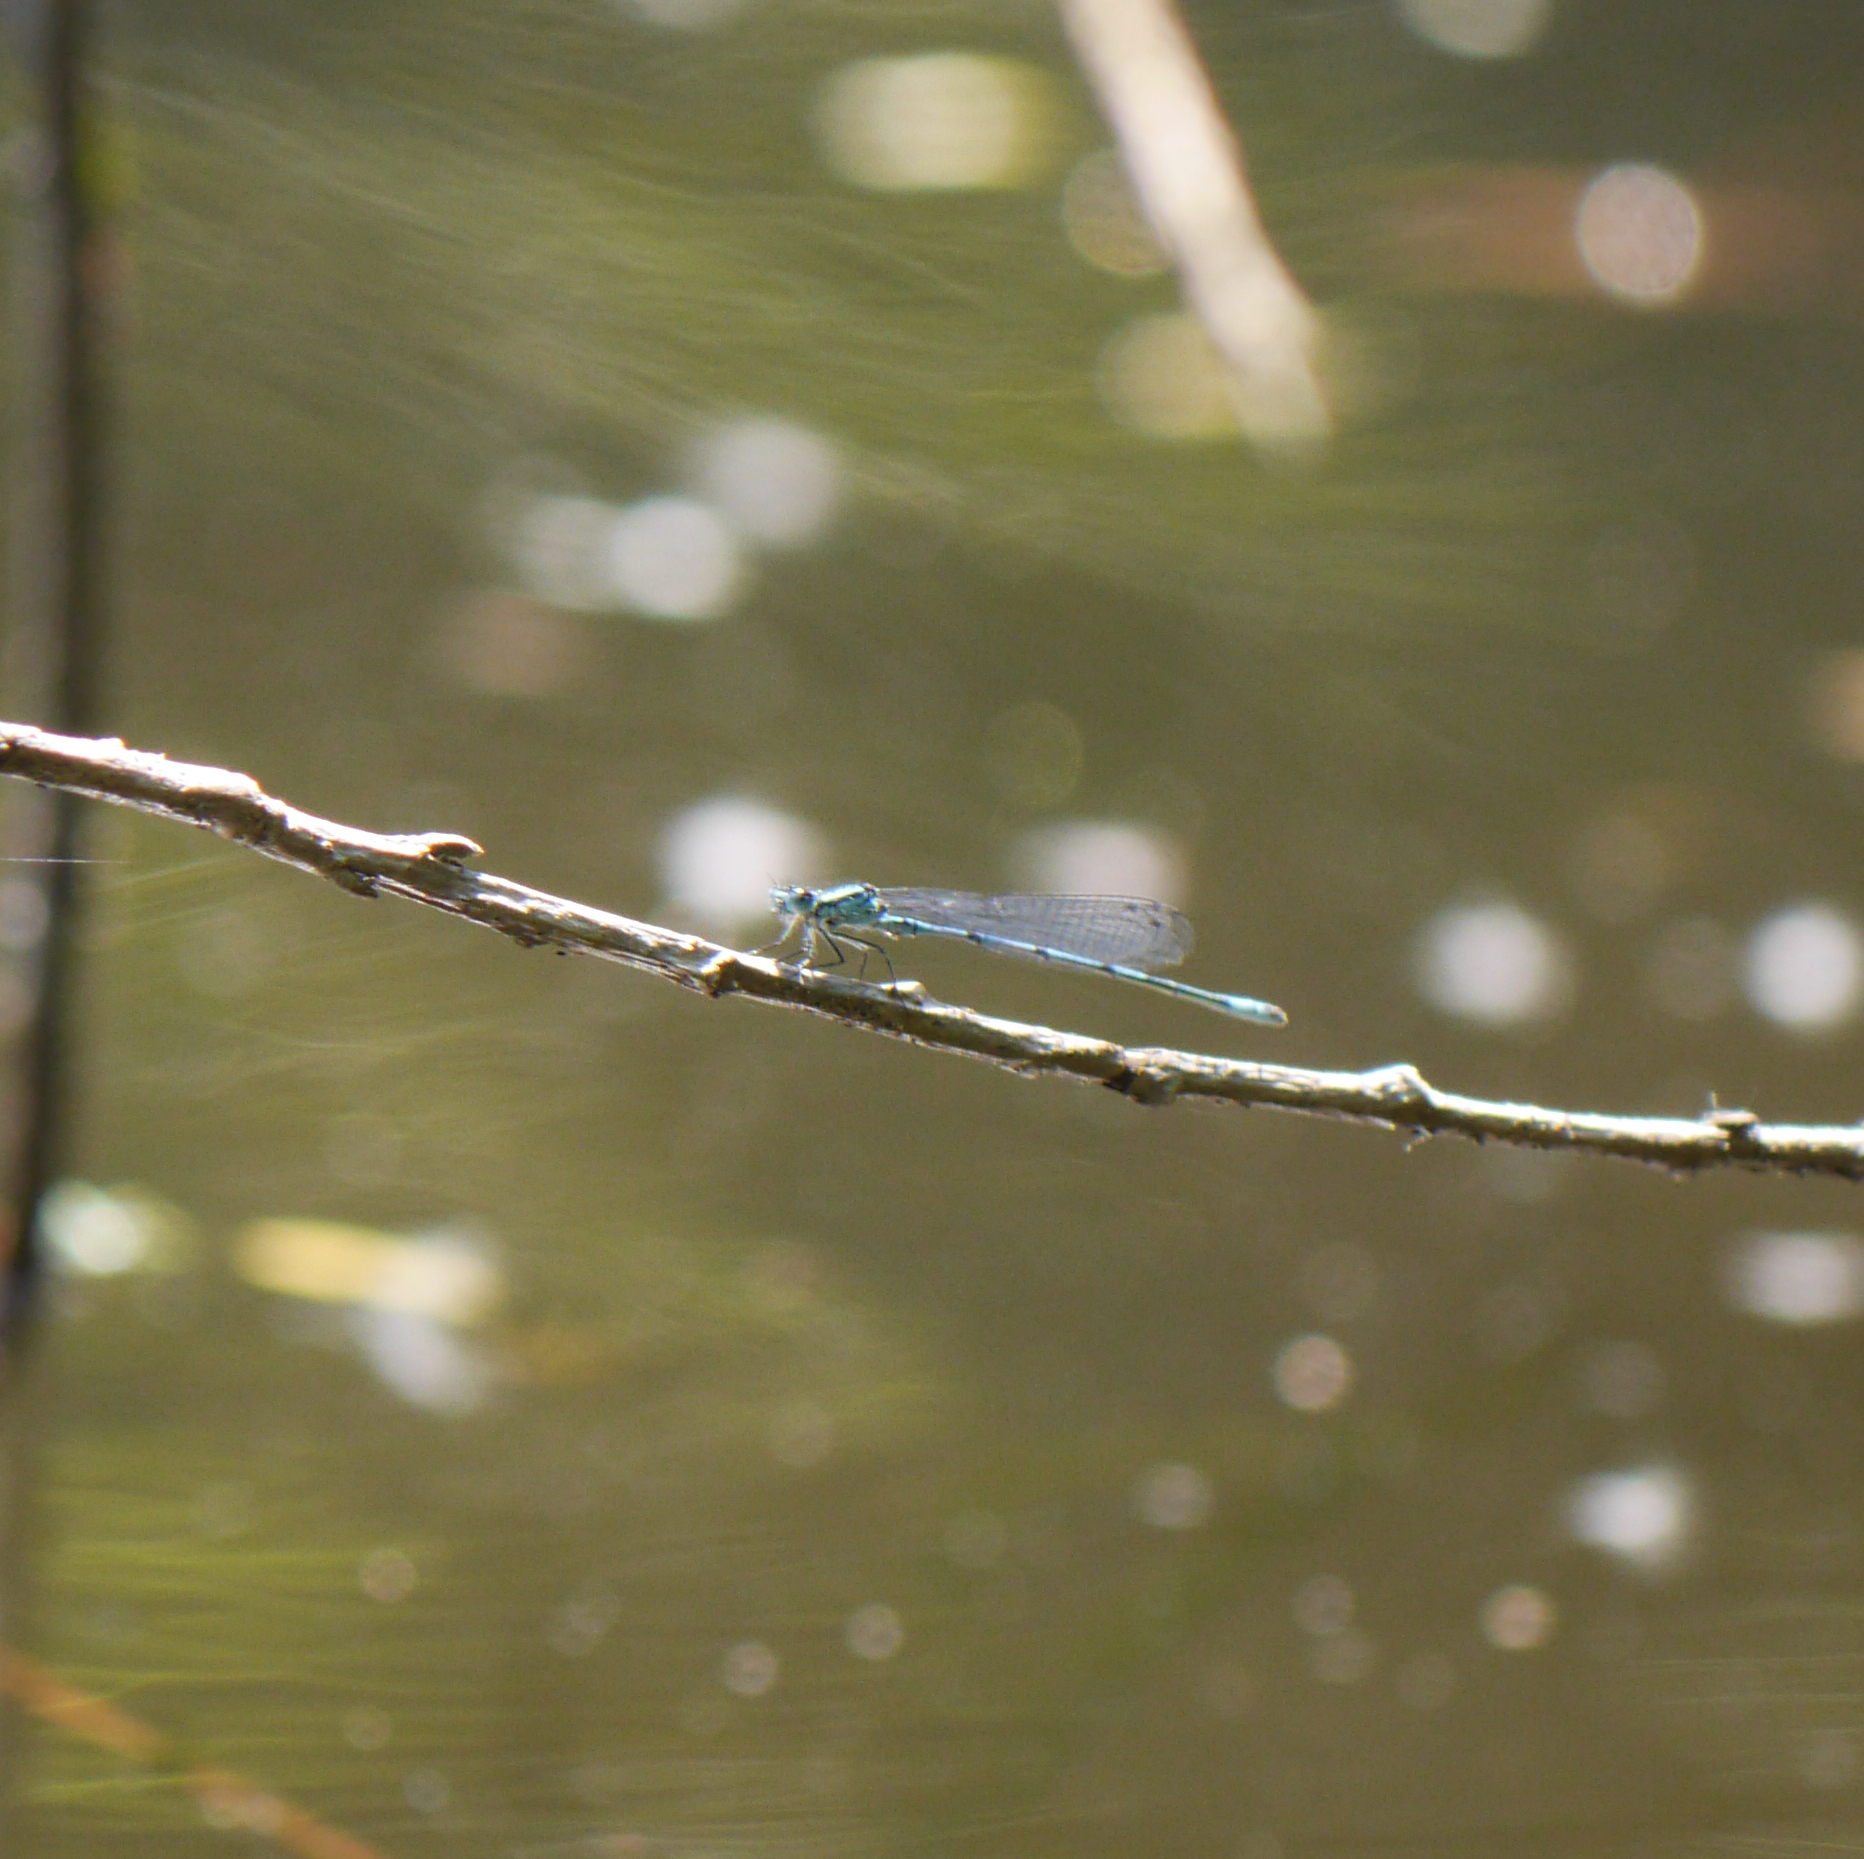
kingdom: Animalia
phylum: Arthropoda
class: Insecta
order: Odonata
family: Coenagrionidae
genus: Coenagrion
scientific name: Coenagrion puella
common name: Azure damselfly
